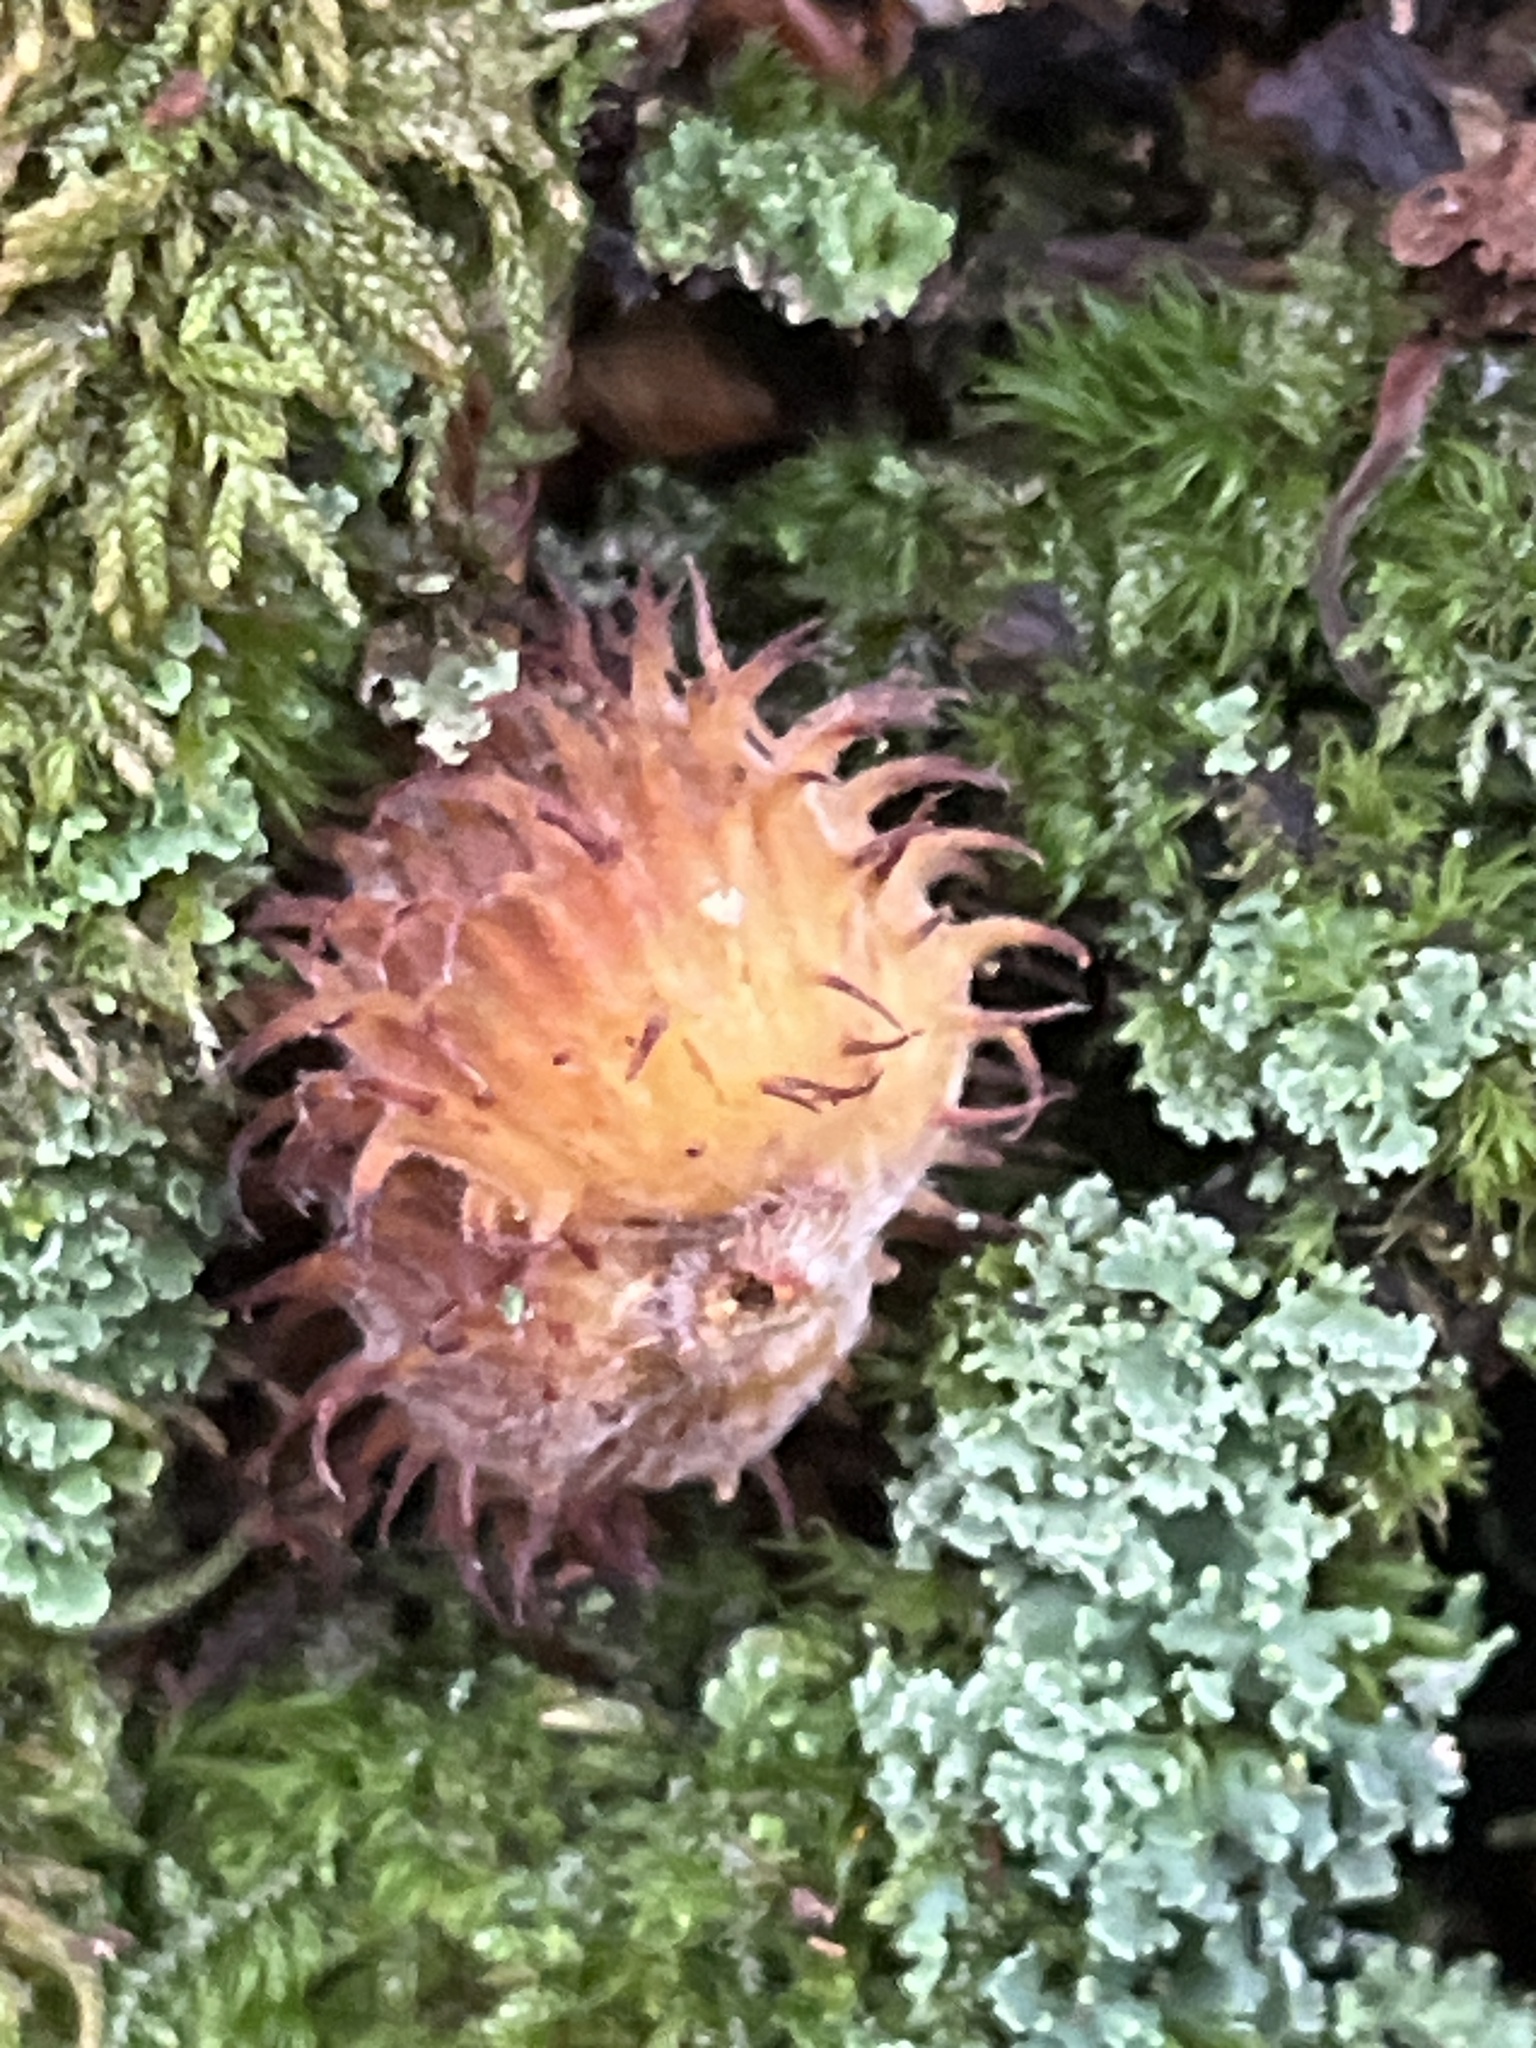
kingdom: Plantae
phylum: Tracheophyta
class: Magnoliopsida
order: Fagales
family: Fagaceae
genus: Fagus
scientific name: Fagus grandifolia
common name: American beech
